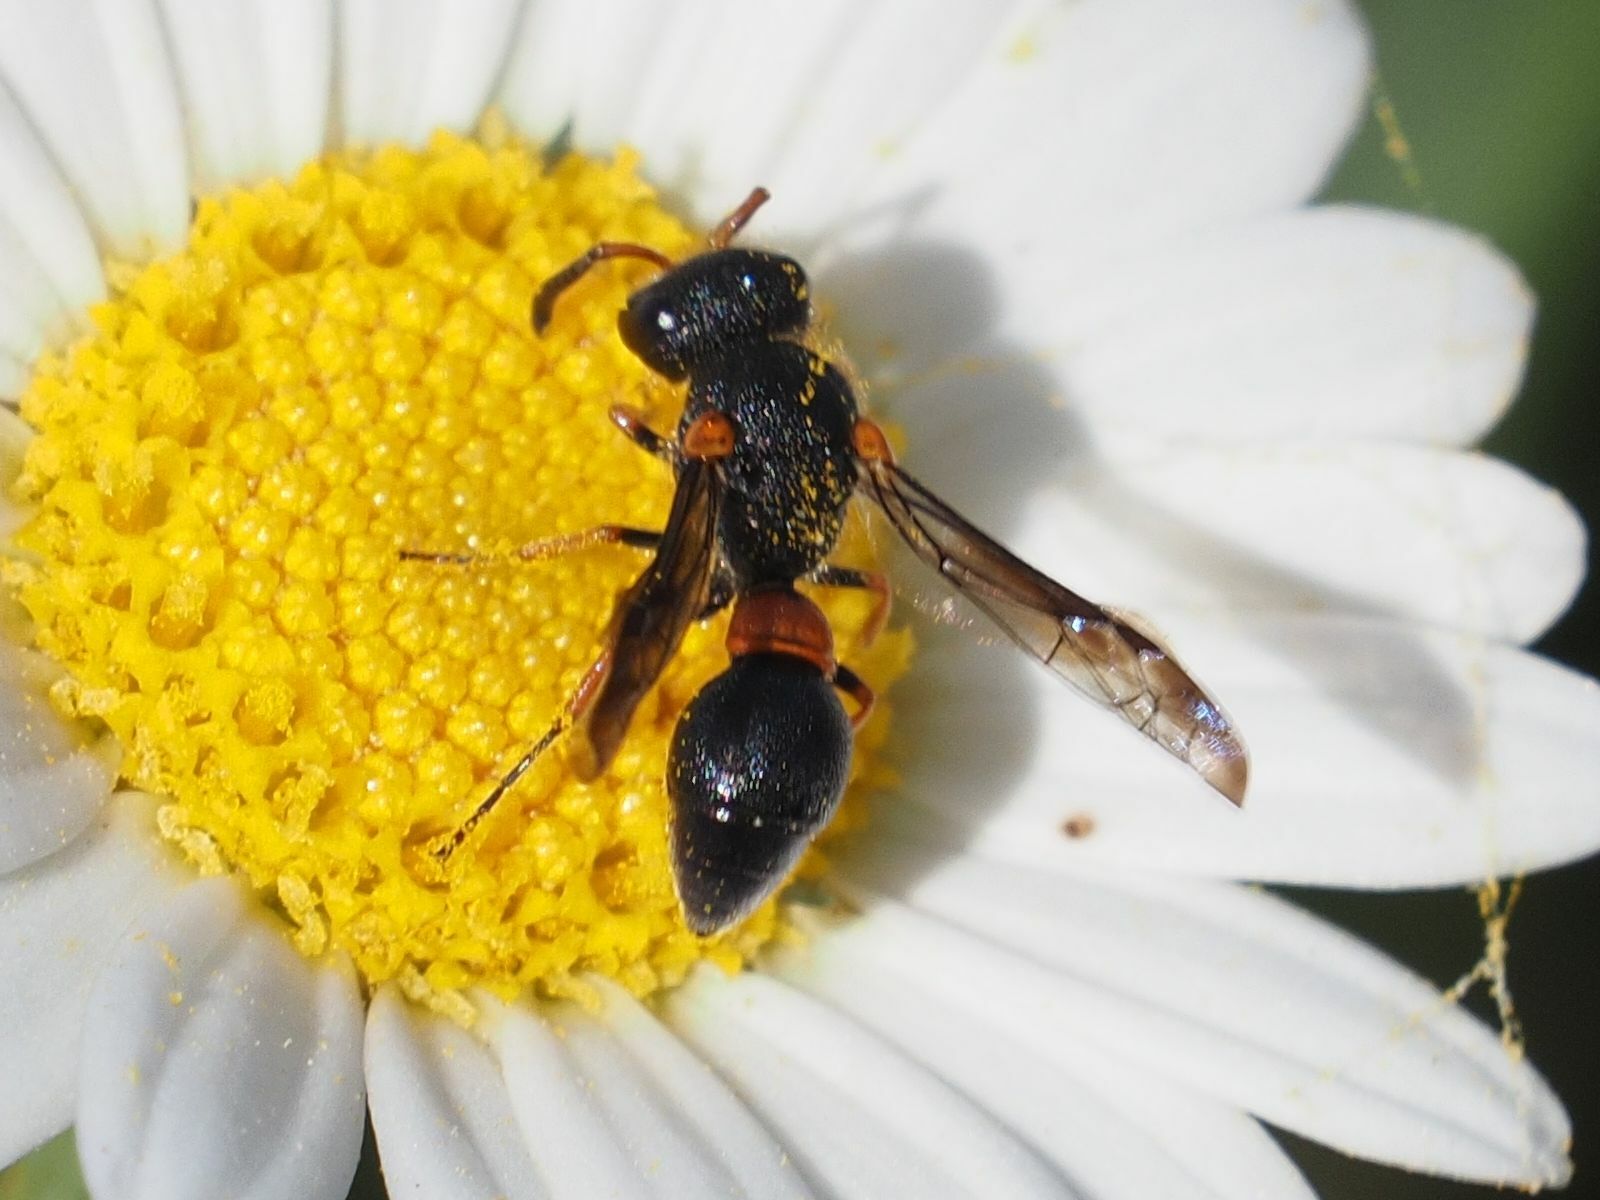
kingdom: Animalia
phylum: Arthropoda
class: Insecta
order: Hymenoptera
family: Eumenidae
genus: Leptochilus
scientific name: Leptochilus cruentatus
